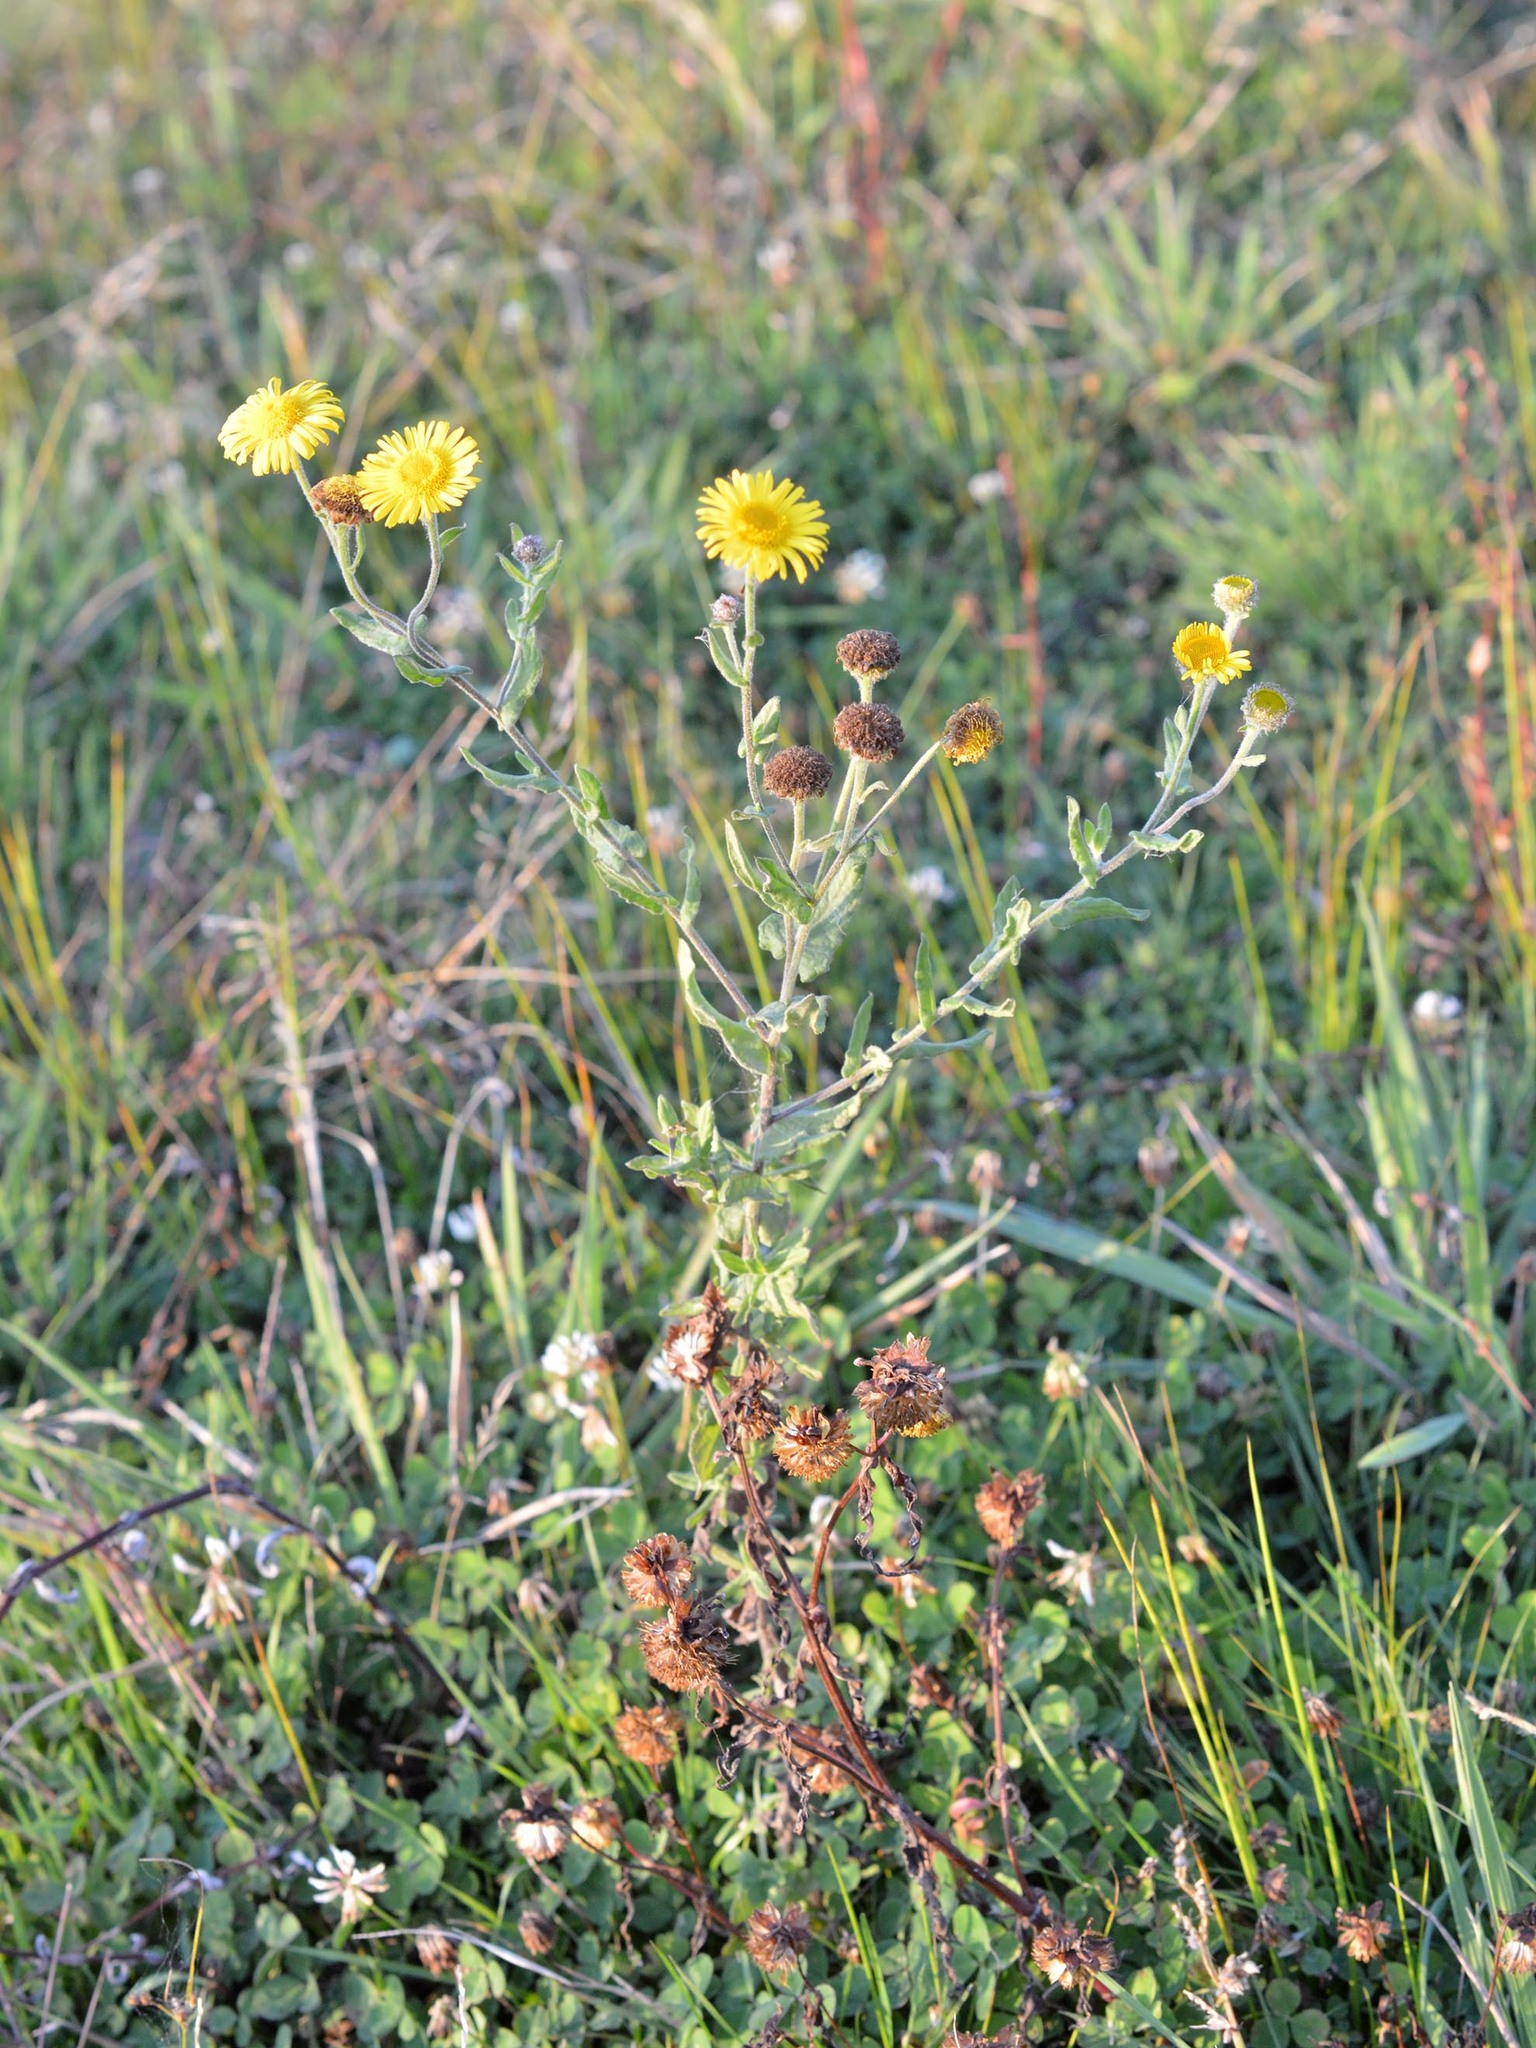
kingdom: Plantae
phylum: Tracheophyta
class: Magnoliopsida
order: Asterales
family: Asteraceae
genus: Pulicaria
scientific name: Pulicaria dysenterica
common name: Common fleabane
